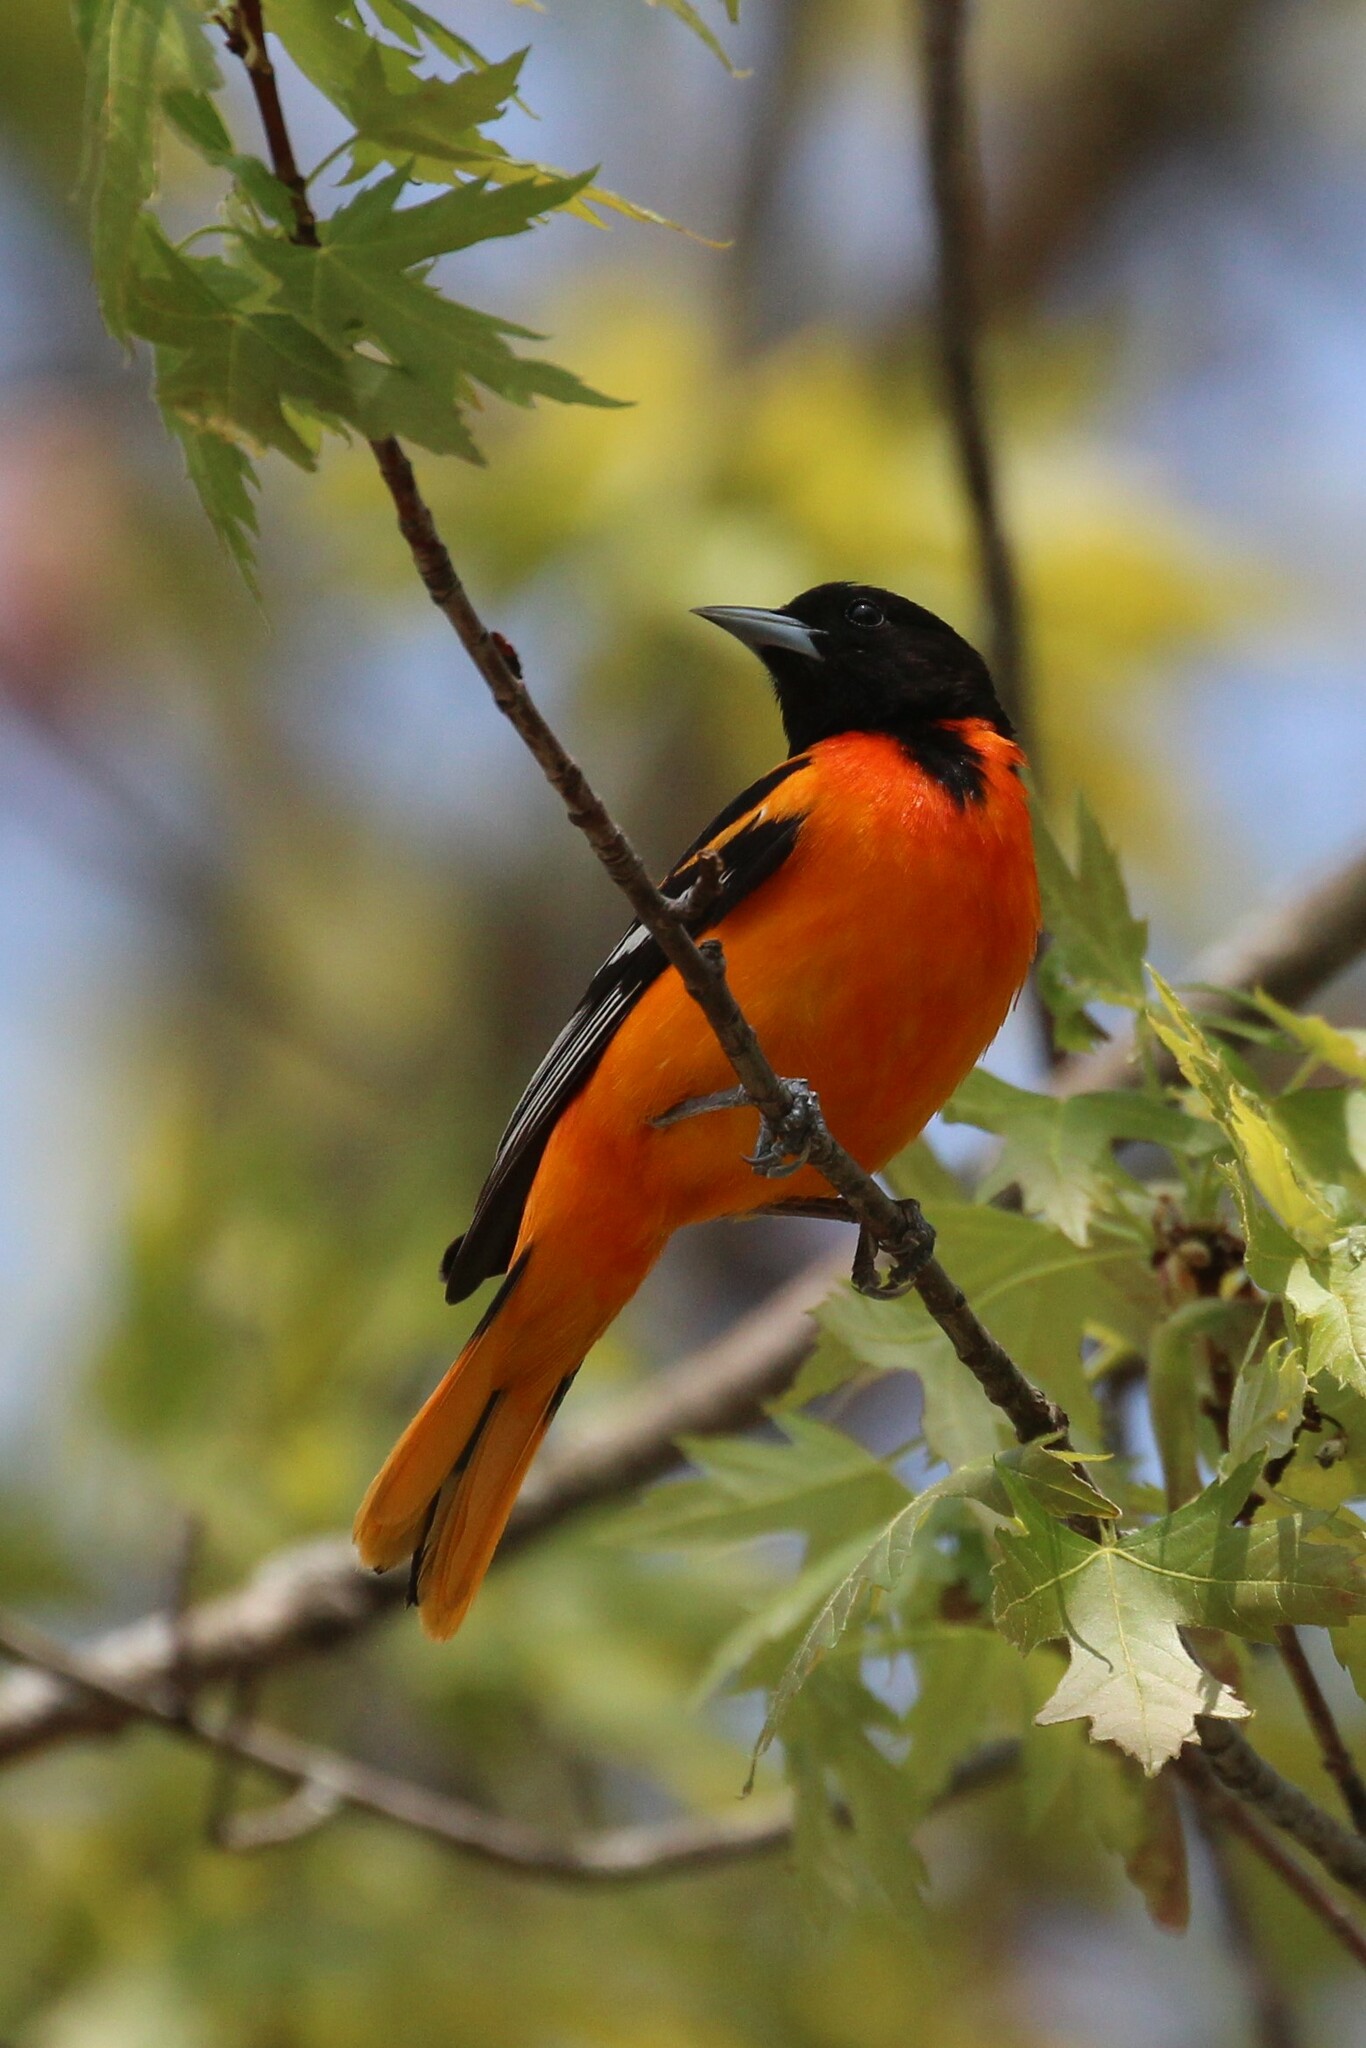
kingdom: Animalia
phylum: Chordata
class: Aves
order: Passeriformes
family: Icteridae
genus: Icterus
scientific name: Icterus galbula
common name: Baltimore oriole
